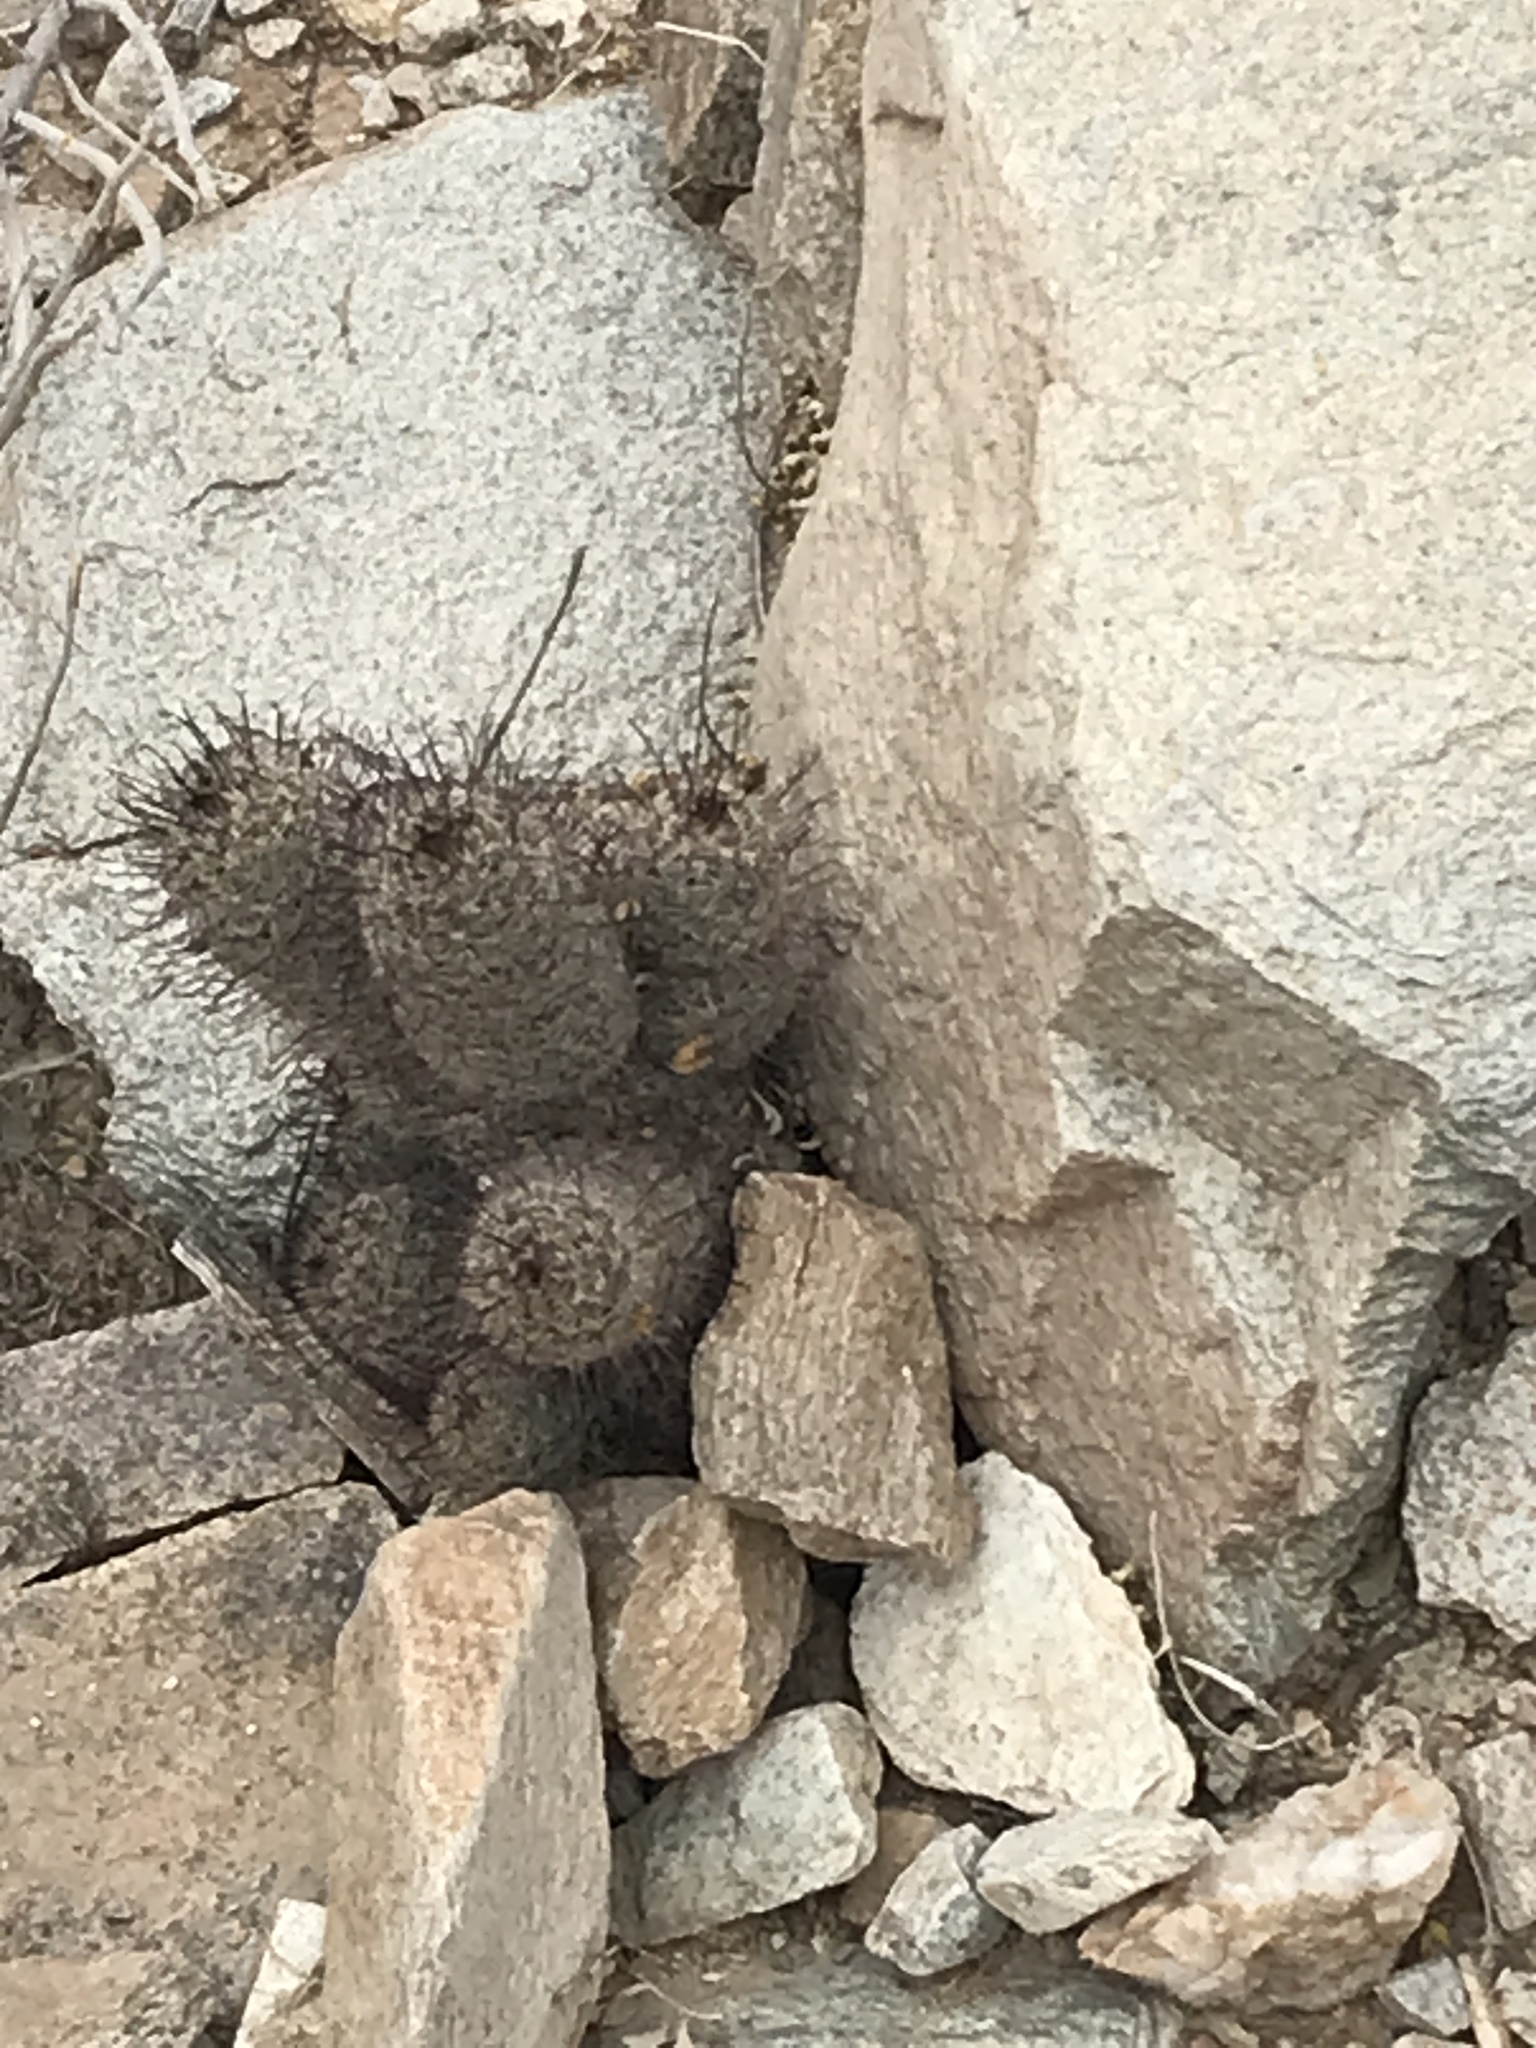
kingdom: Plantae
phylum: Tracheophyta
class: Magnoliopsida
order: Caryophyllales
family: Cactaceae
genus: Cochemiea
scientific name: Cochemiea grahamii
